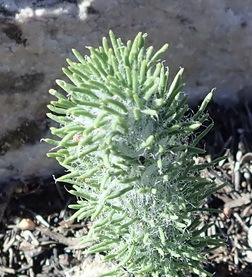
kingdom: Plantae
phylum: Tracheophyta
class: Liliopsida
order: Asparagales
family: Asparagaceae
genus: Eriospermum
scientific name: Eriospermum paradoxum
